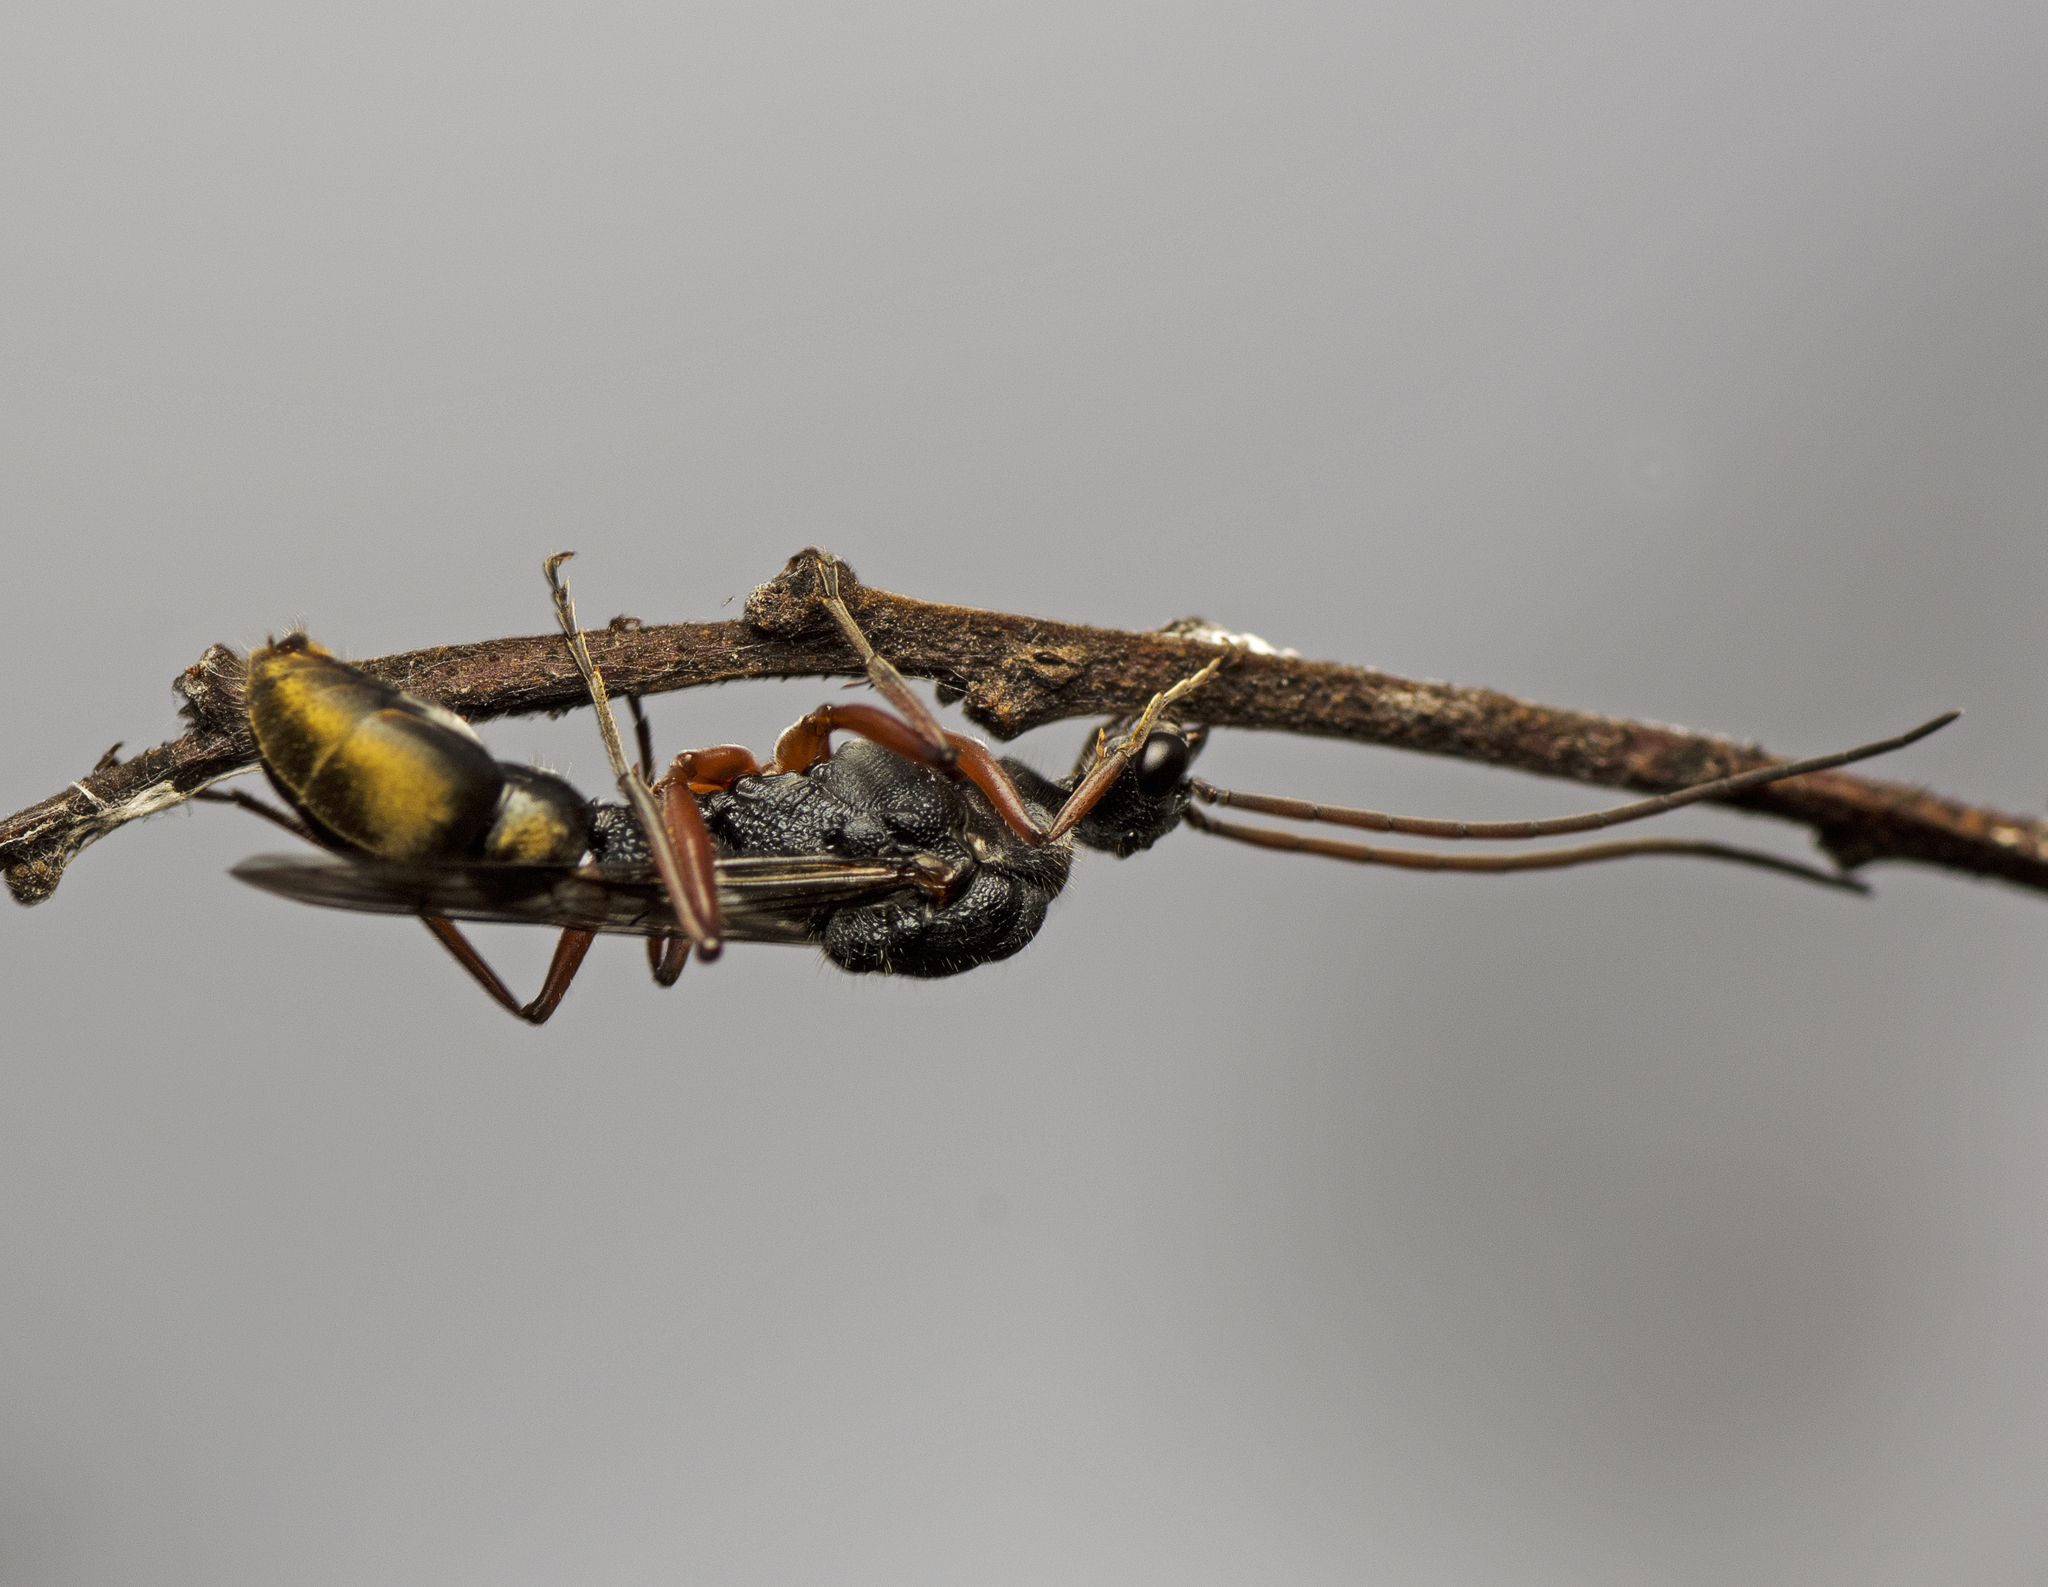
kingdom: Animalia
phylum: Arthropoda
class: Insecta
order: Hymenoptera
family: Formicidae
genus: Myrmecia
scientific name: Myrmecia fulvipes
